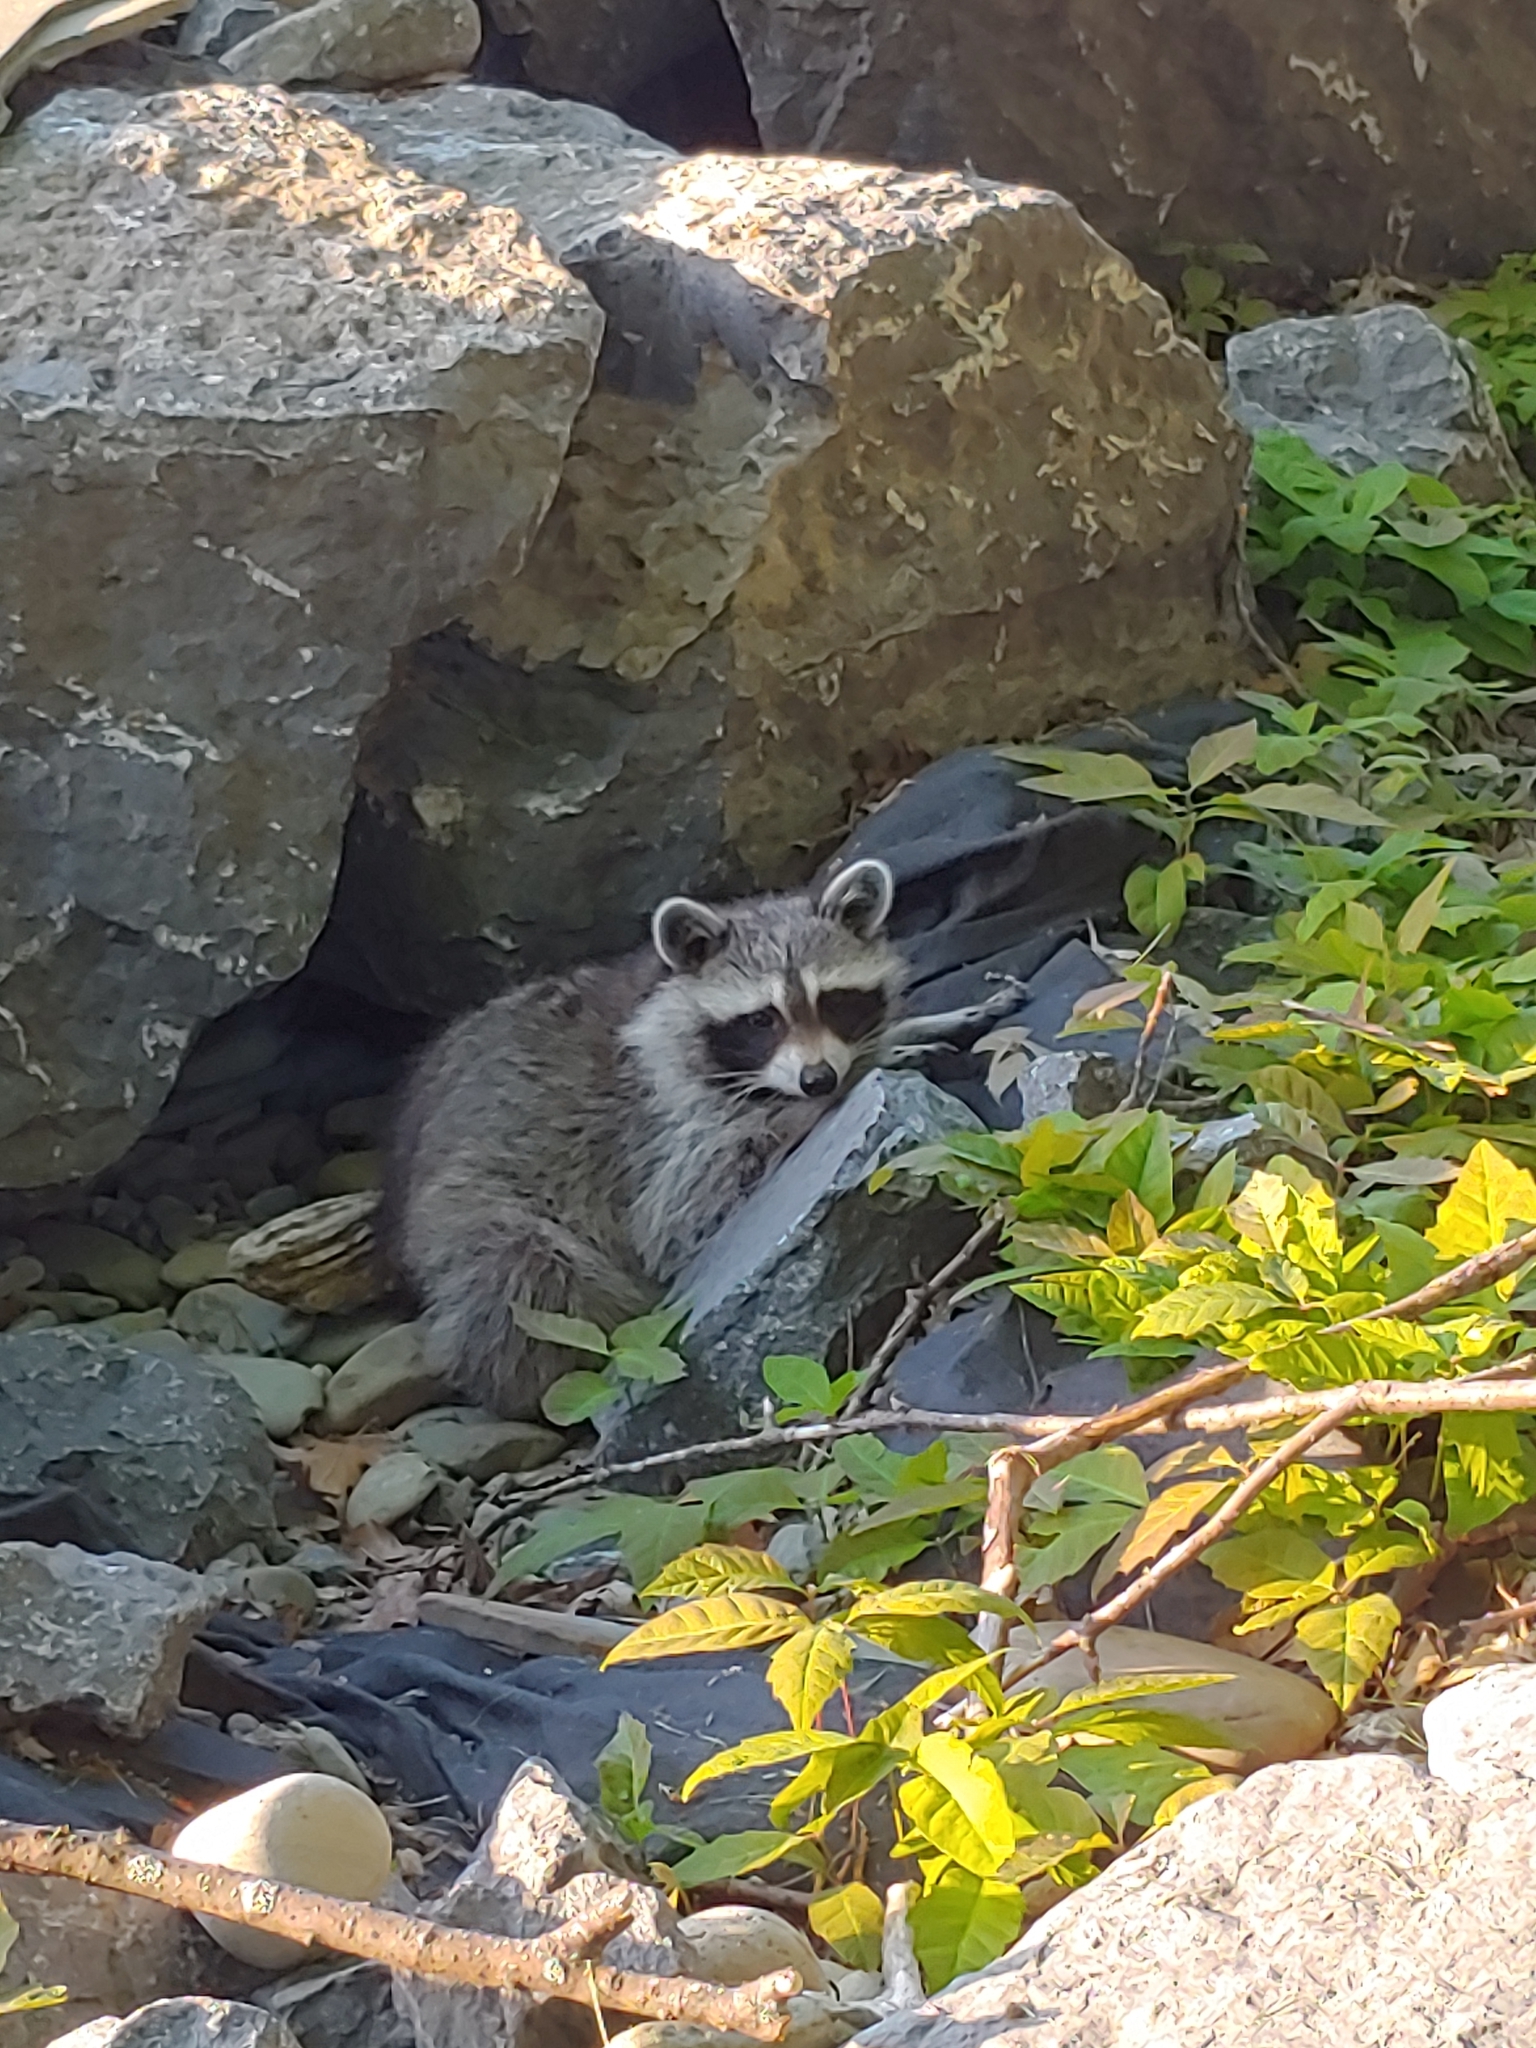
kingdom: Animalia
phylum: Chordata
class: Mammalia
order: Carnivora
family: Procyonidae
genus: Procyon
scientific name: Procyon lotor
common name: Raccoon
